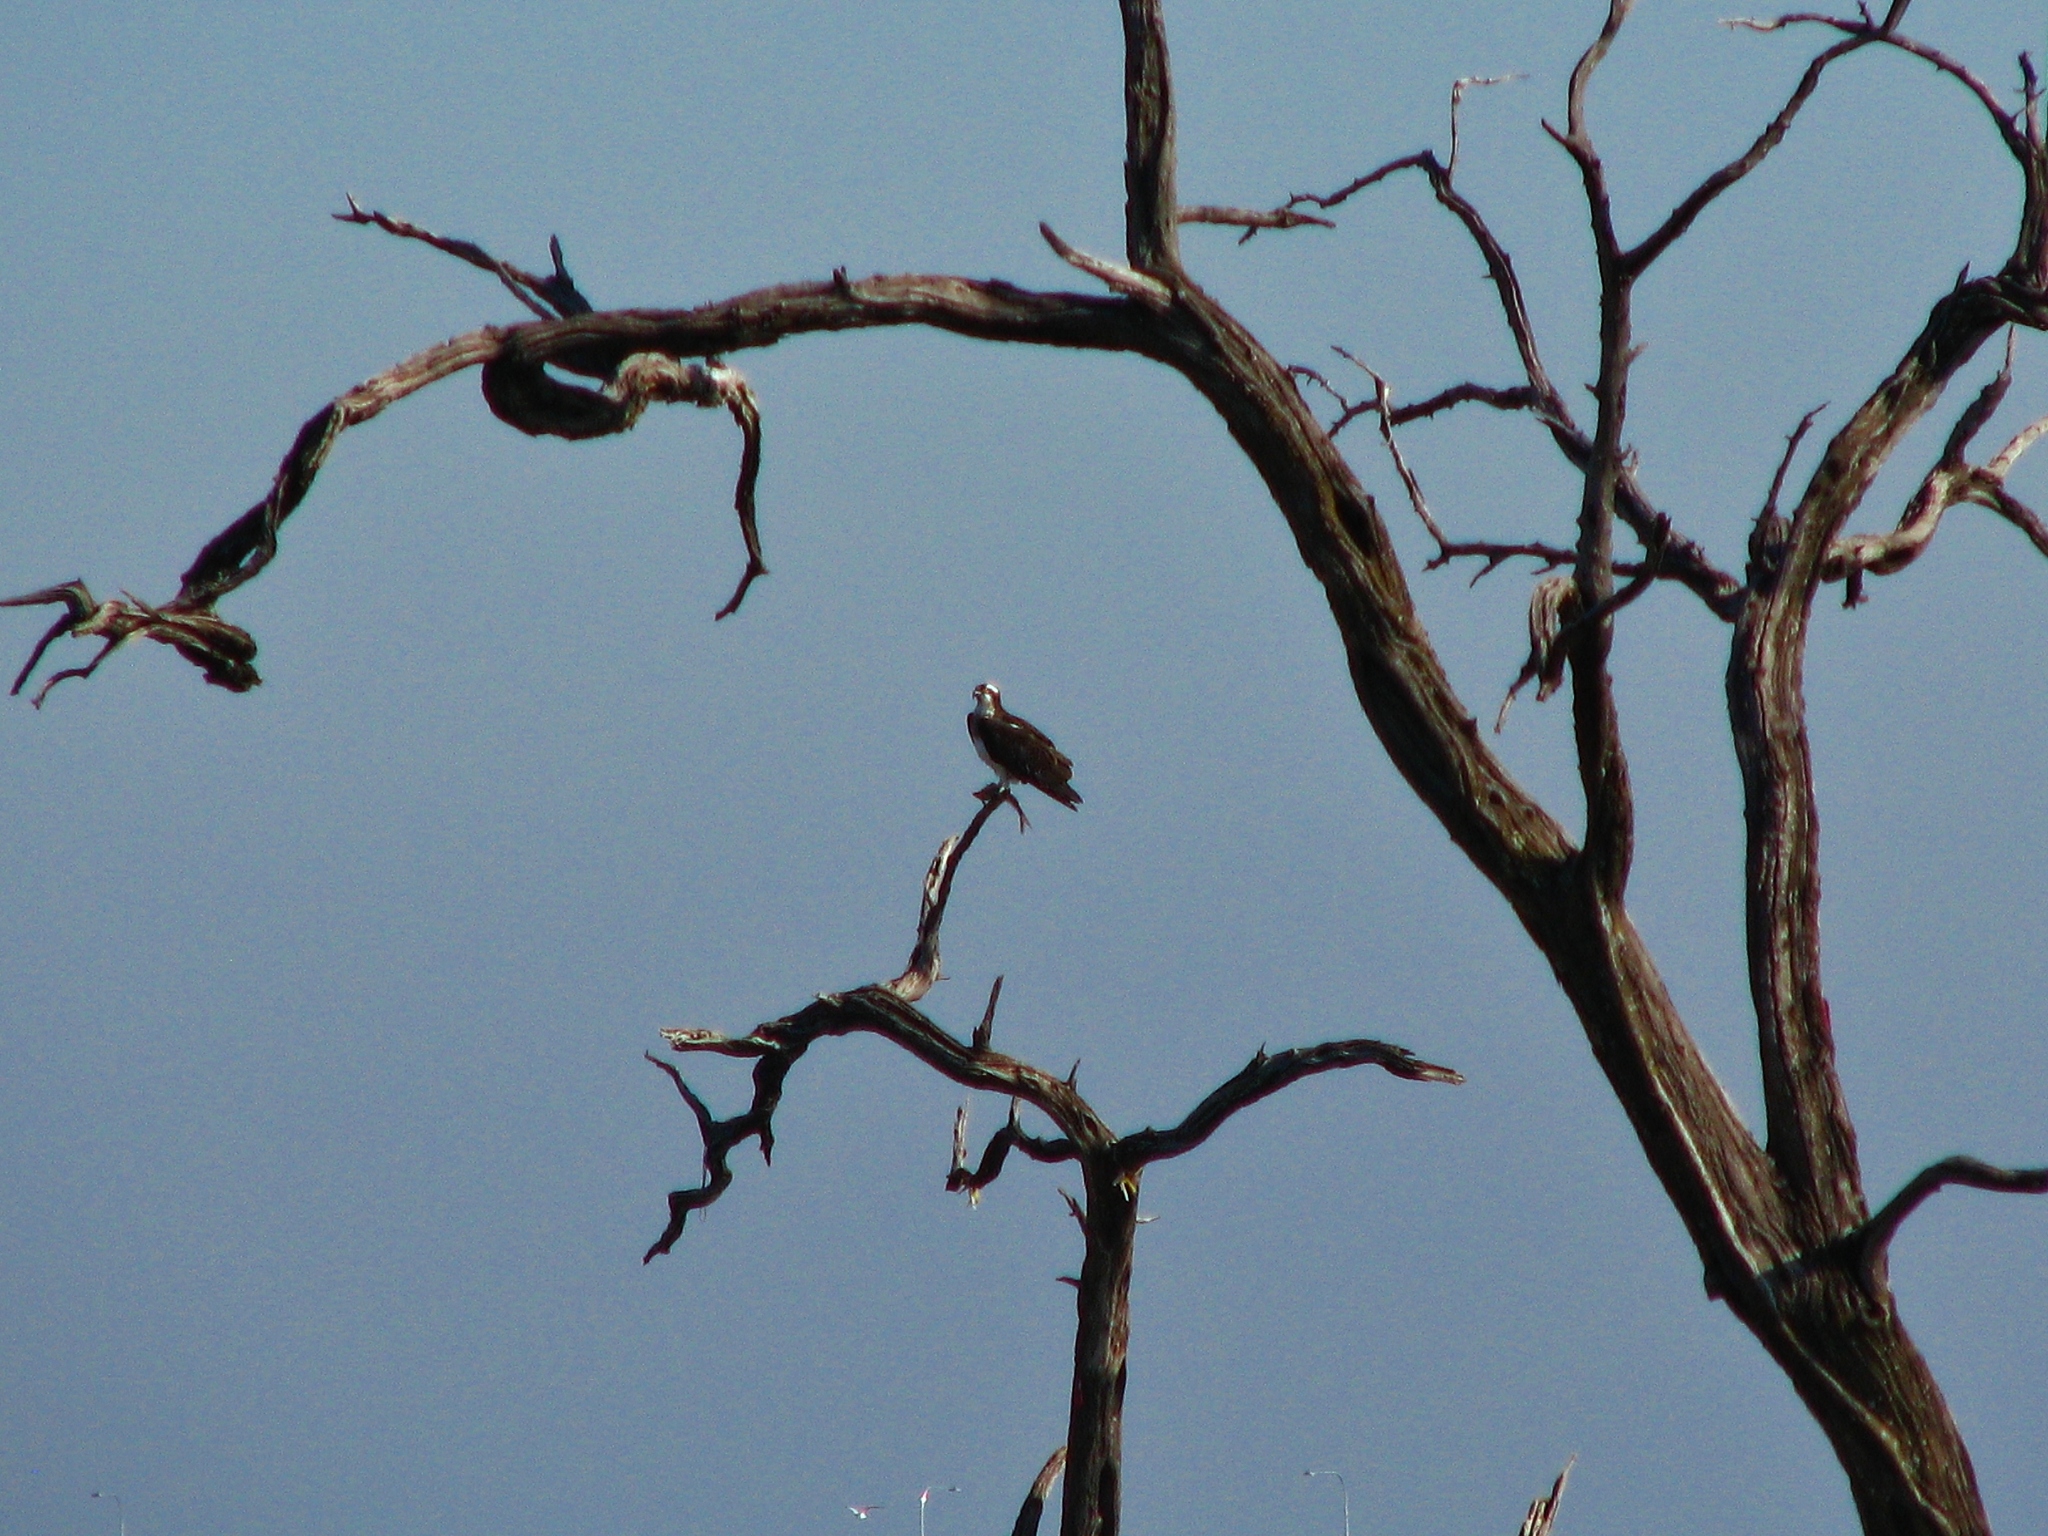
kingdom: Animalia
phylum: Chordata
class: Aves
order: Accipitriformes
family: Pandionidae
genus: Pandion
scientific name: Pandion haliaetus
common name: Osprey
